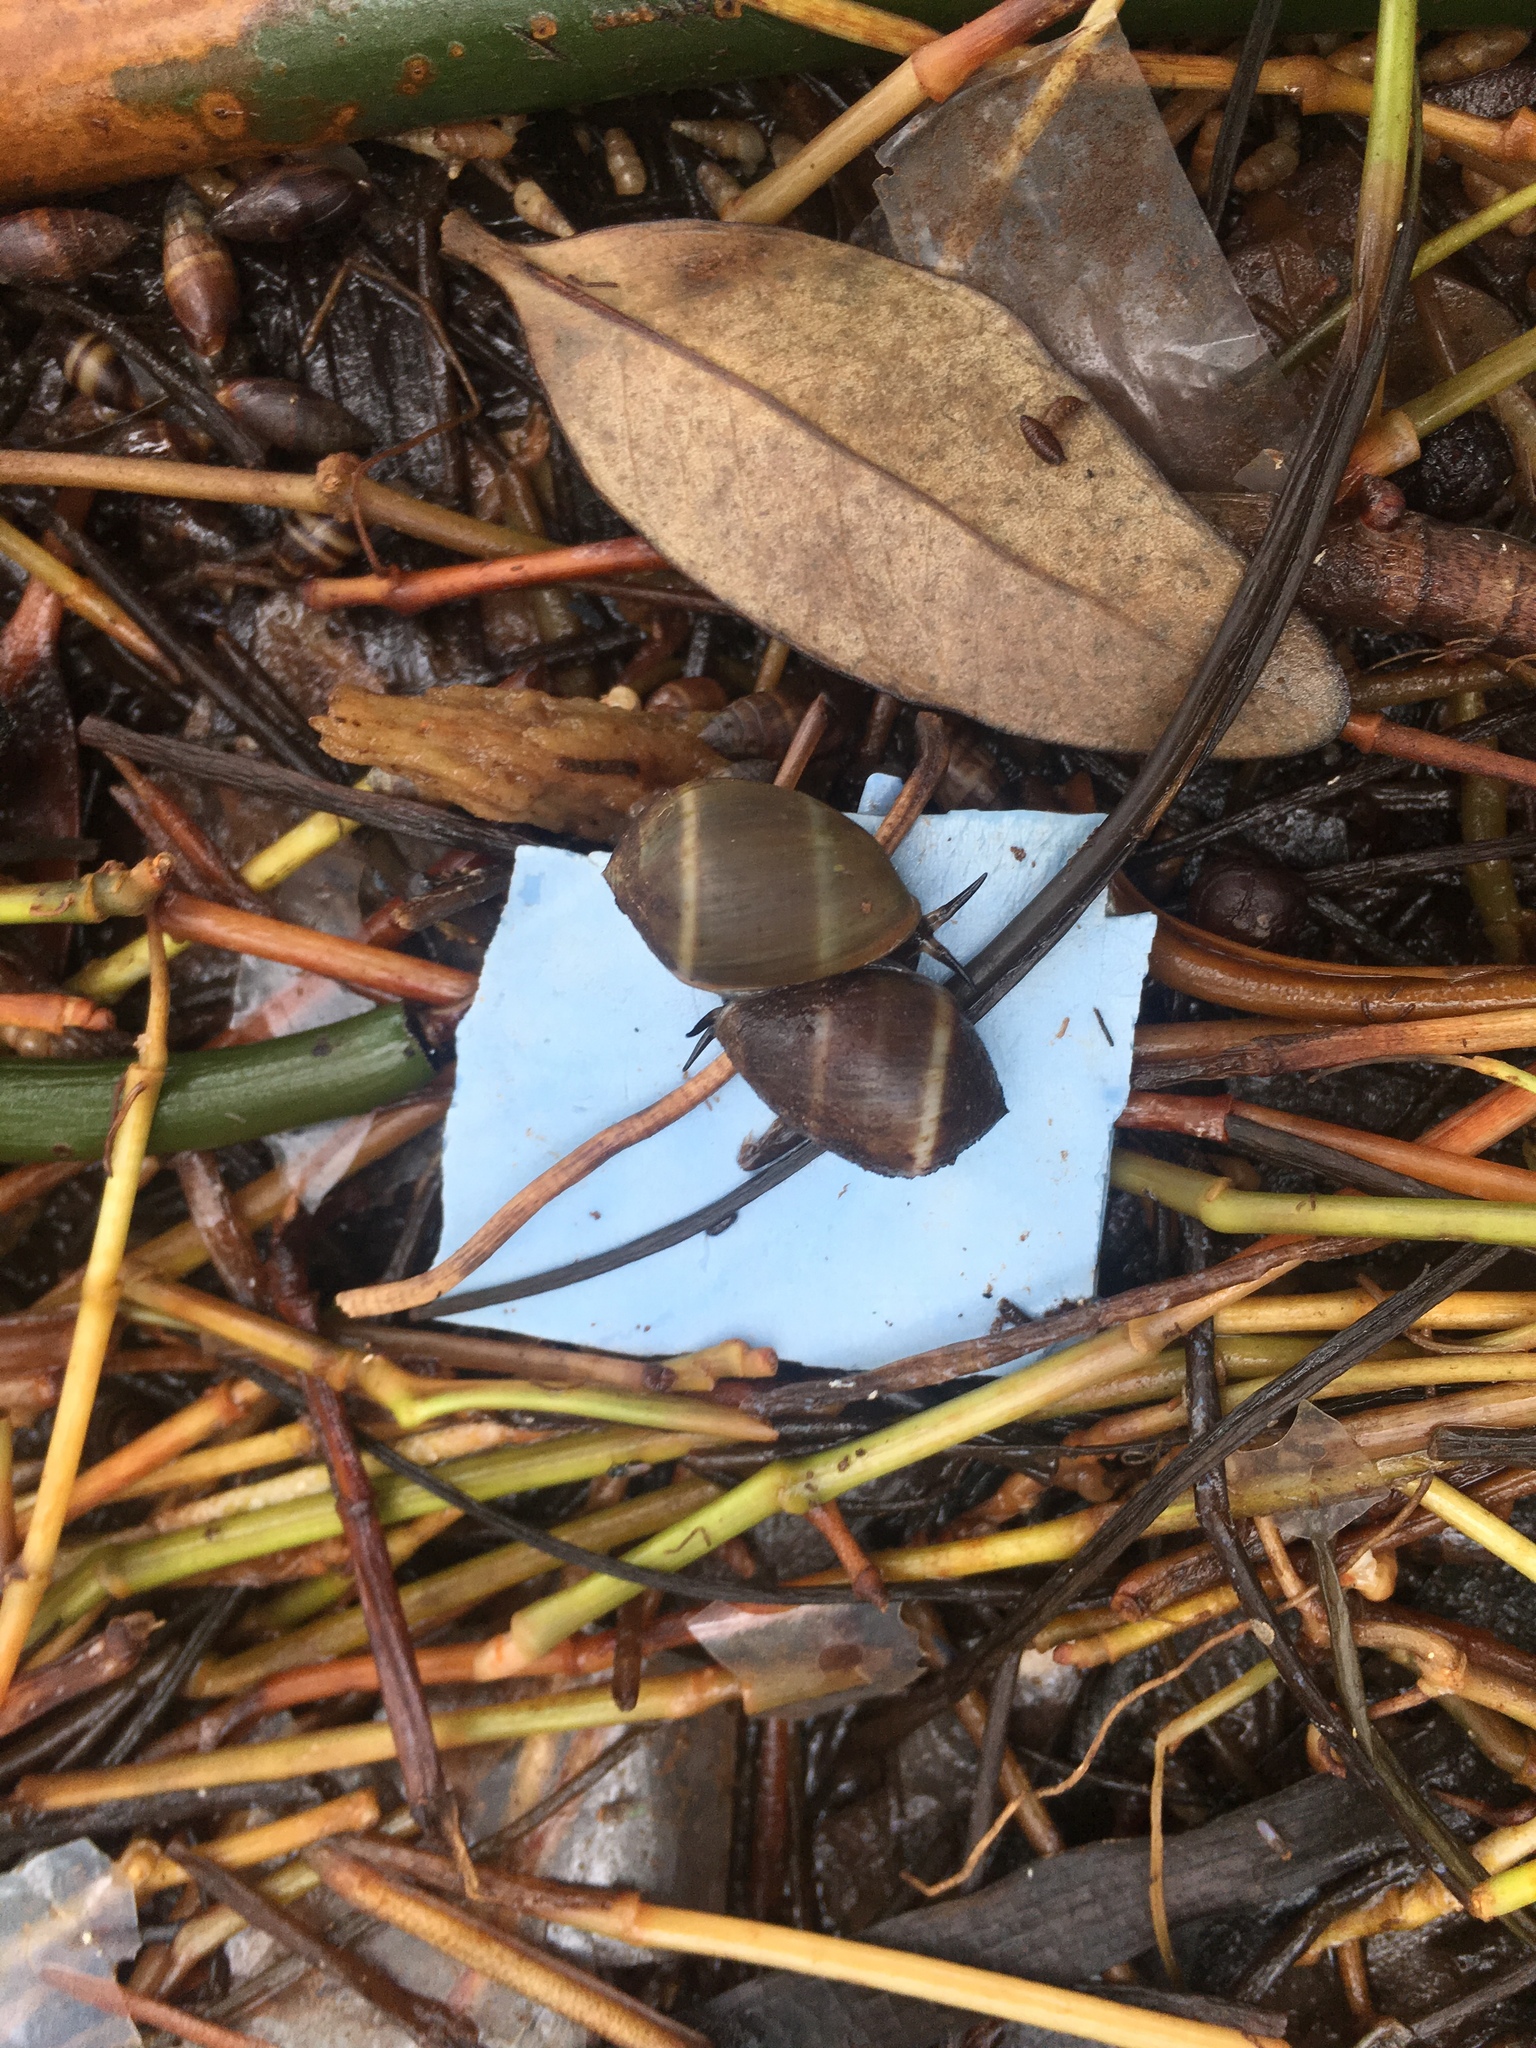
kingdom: Animalia
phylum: Mollusca
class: Gastropoda
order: Ellobiida
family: Ellobiidae
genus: Melampus
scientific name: Melampus coffea
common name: Coffee bean snail
